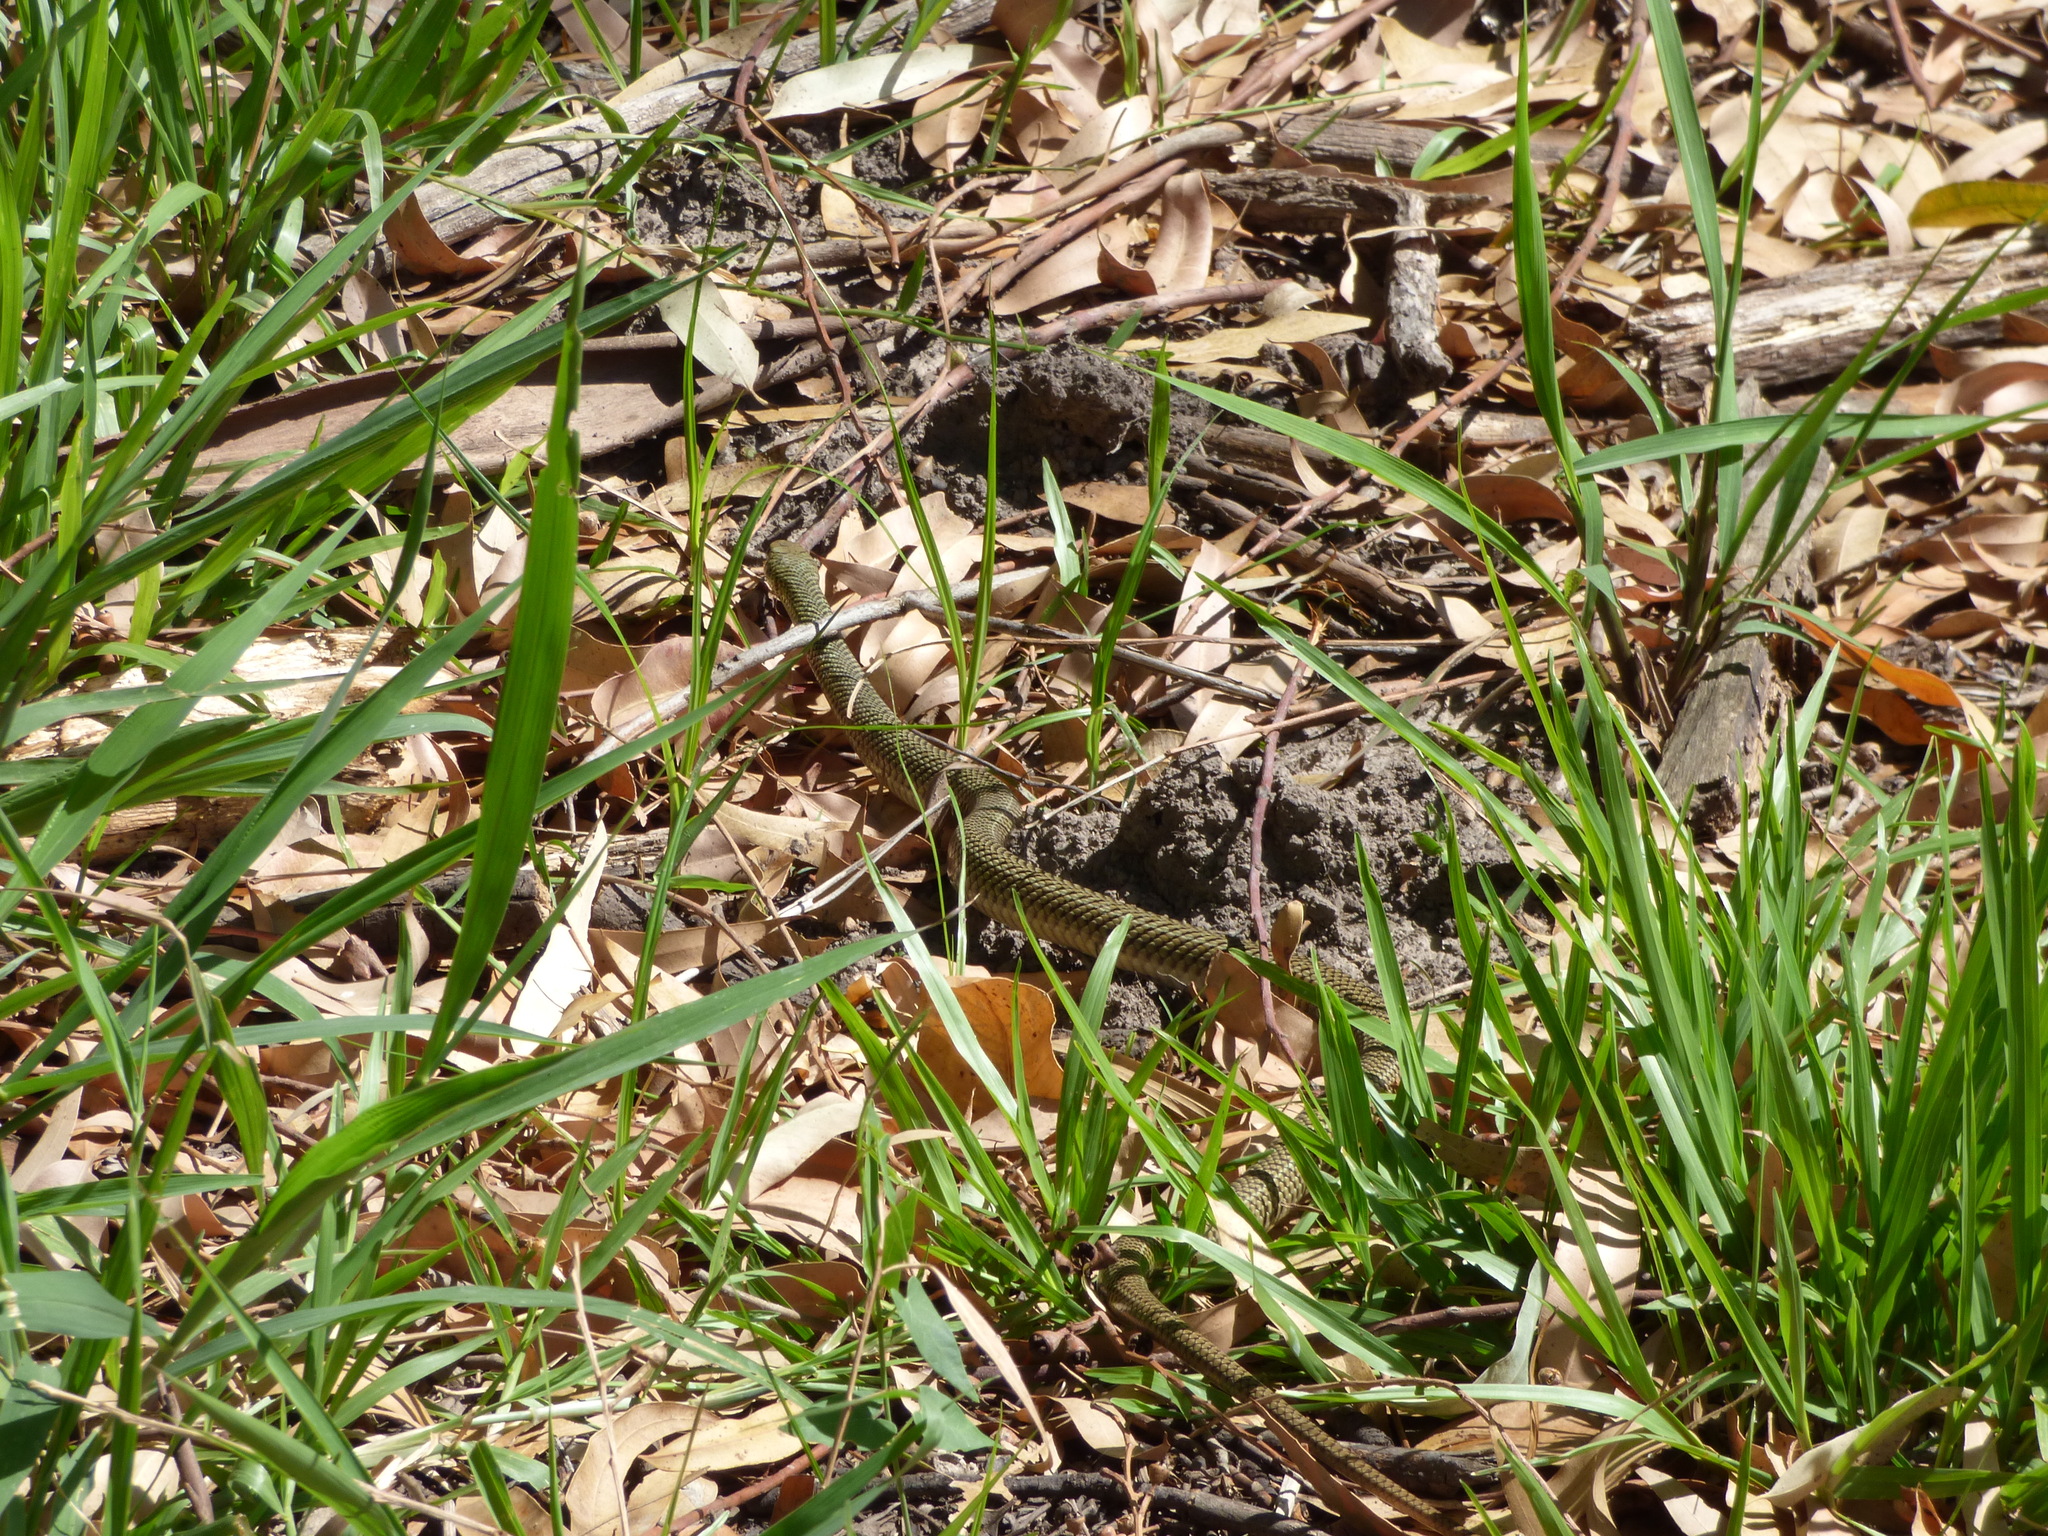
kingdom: Animalia
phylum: Chordata
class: Squamata
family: Colubridae
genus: Philodryas
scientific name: Philodryas patagoniensis
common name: Patagonia green racer
